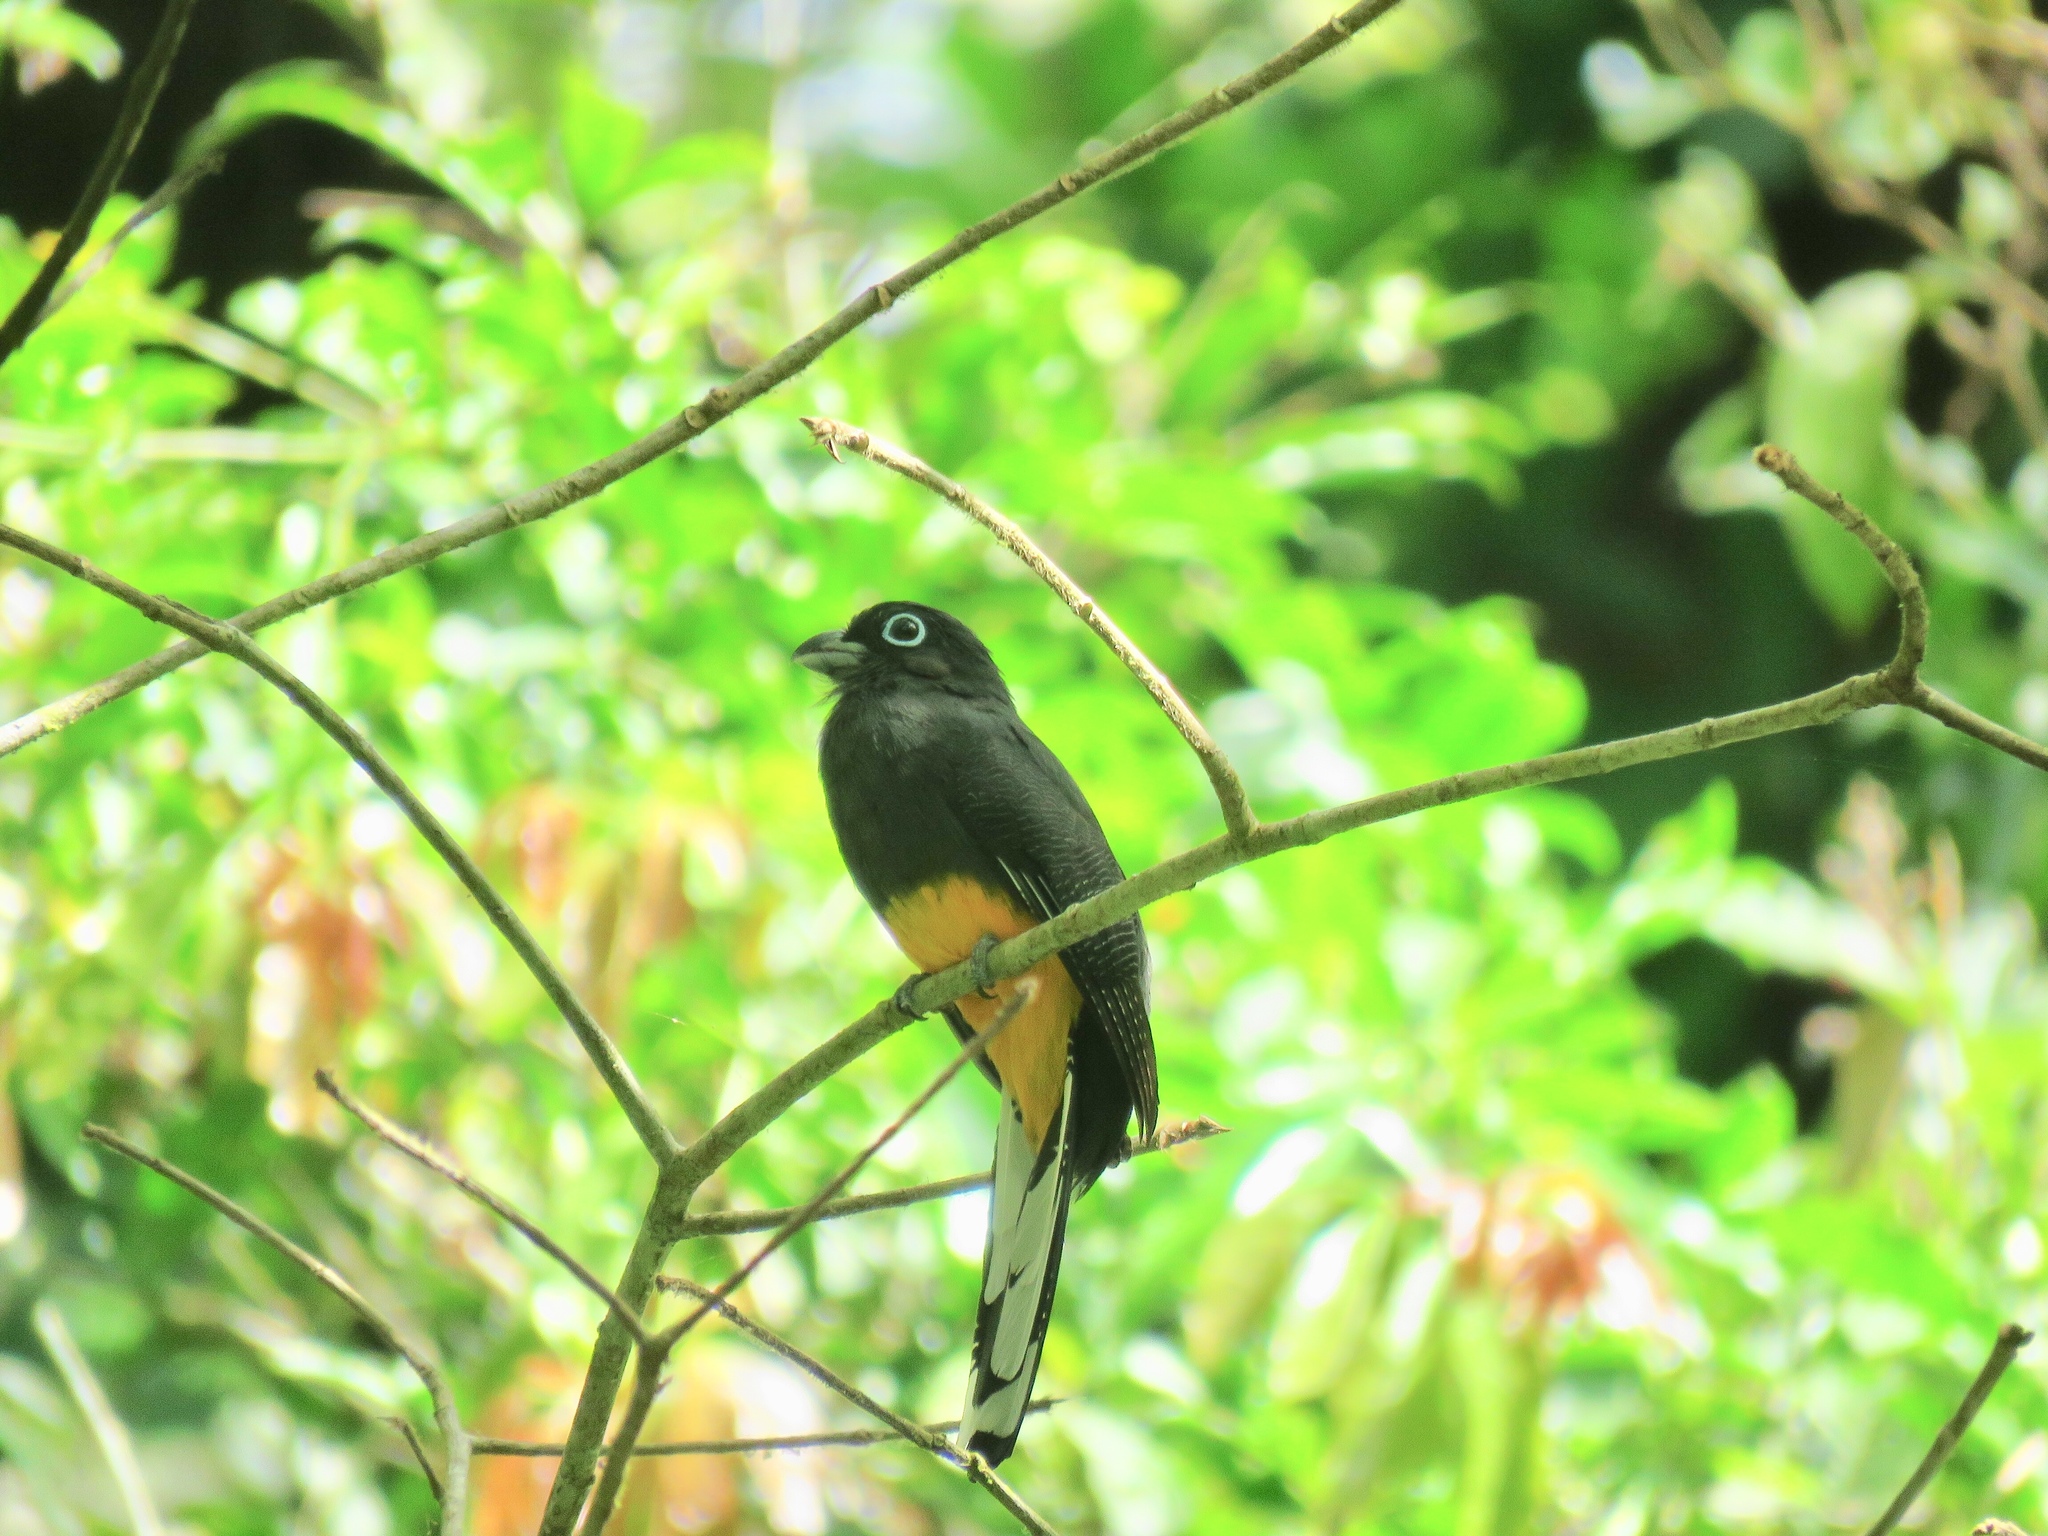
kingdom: Animalia
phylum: Chordata
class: Aves
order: Trogoniformes
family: Trogonidae
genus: Trogon
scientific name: Trogon chionurus
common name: White-tailed trogon
